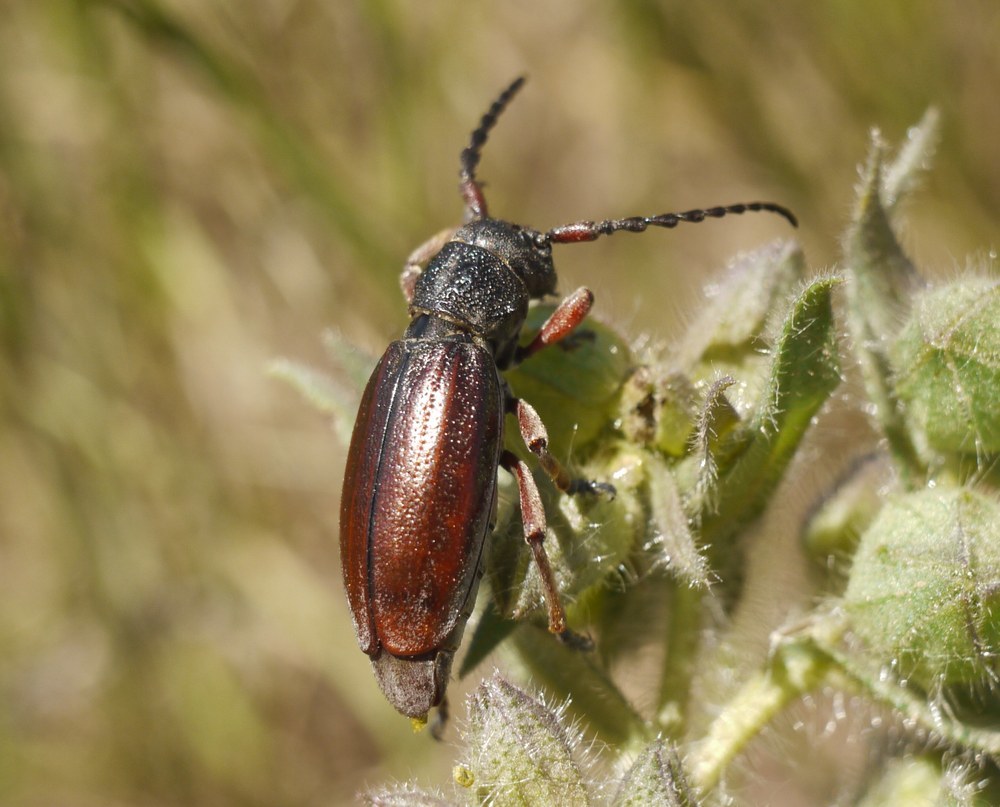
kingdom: Animalia
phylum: Arthropoda
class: Insecta
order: Coleoptera
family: Cerambycidae
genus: Dorcadion
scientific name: Dorcadion fulvum
